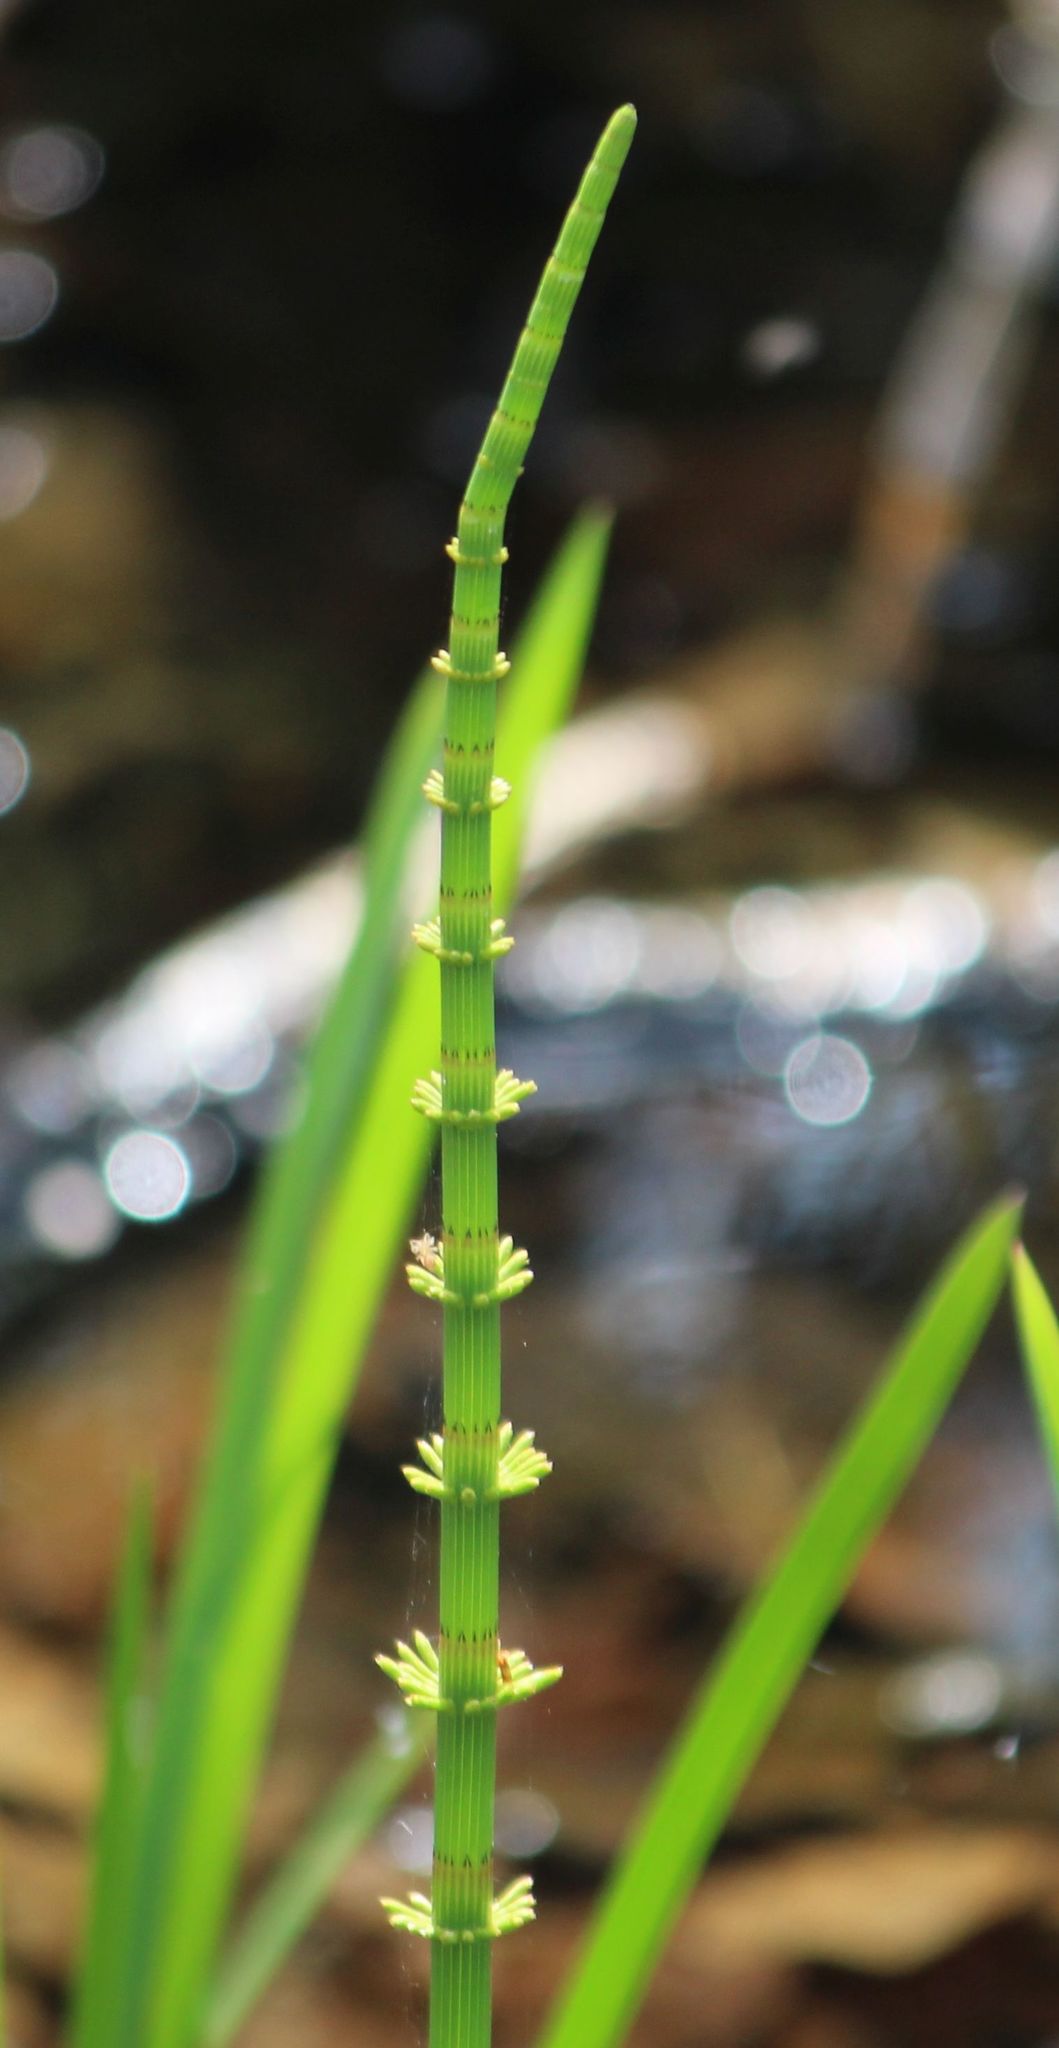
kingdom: Plantae
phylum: Tracheophyta
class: Polypodiopsida
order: Equisetales
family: Equisetaceae
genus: Equisetum
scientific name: Equisetum fluviatile
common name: Water horsetail
